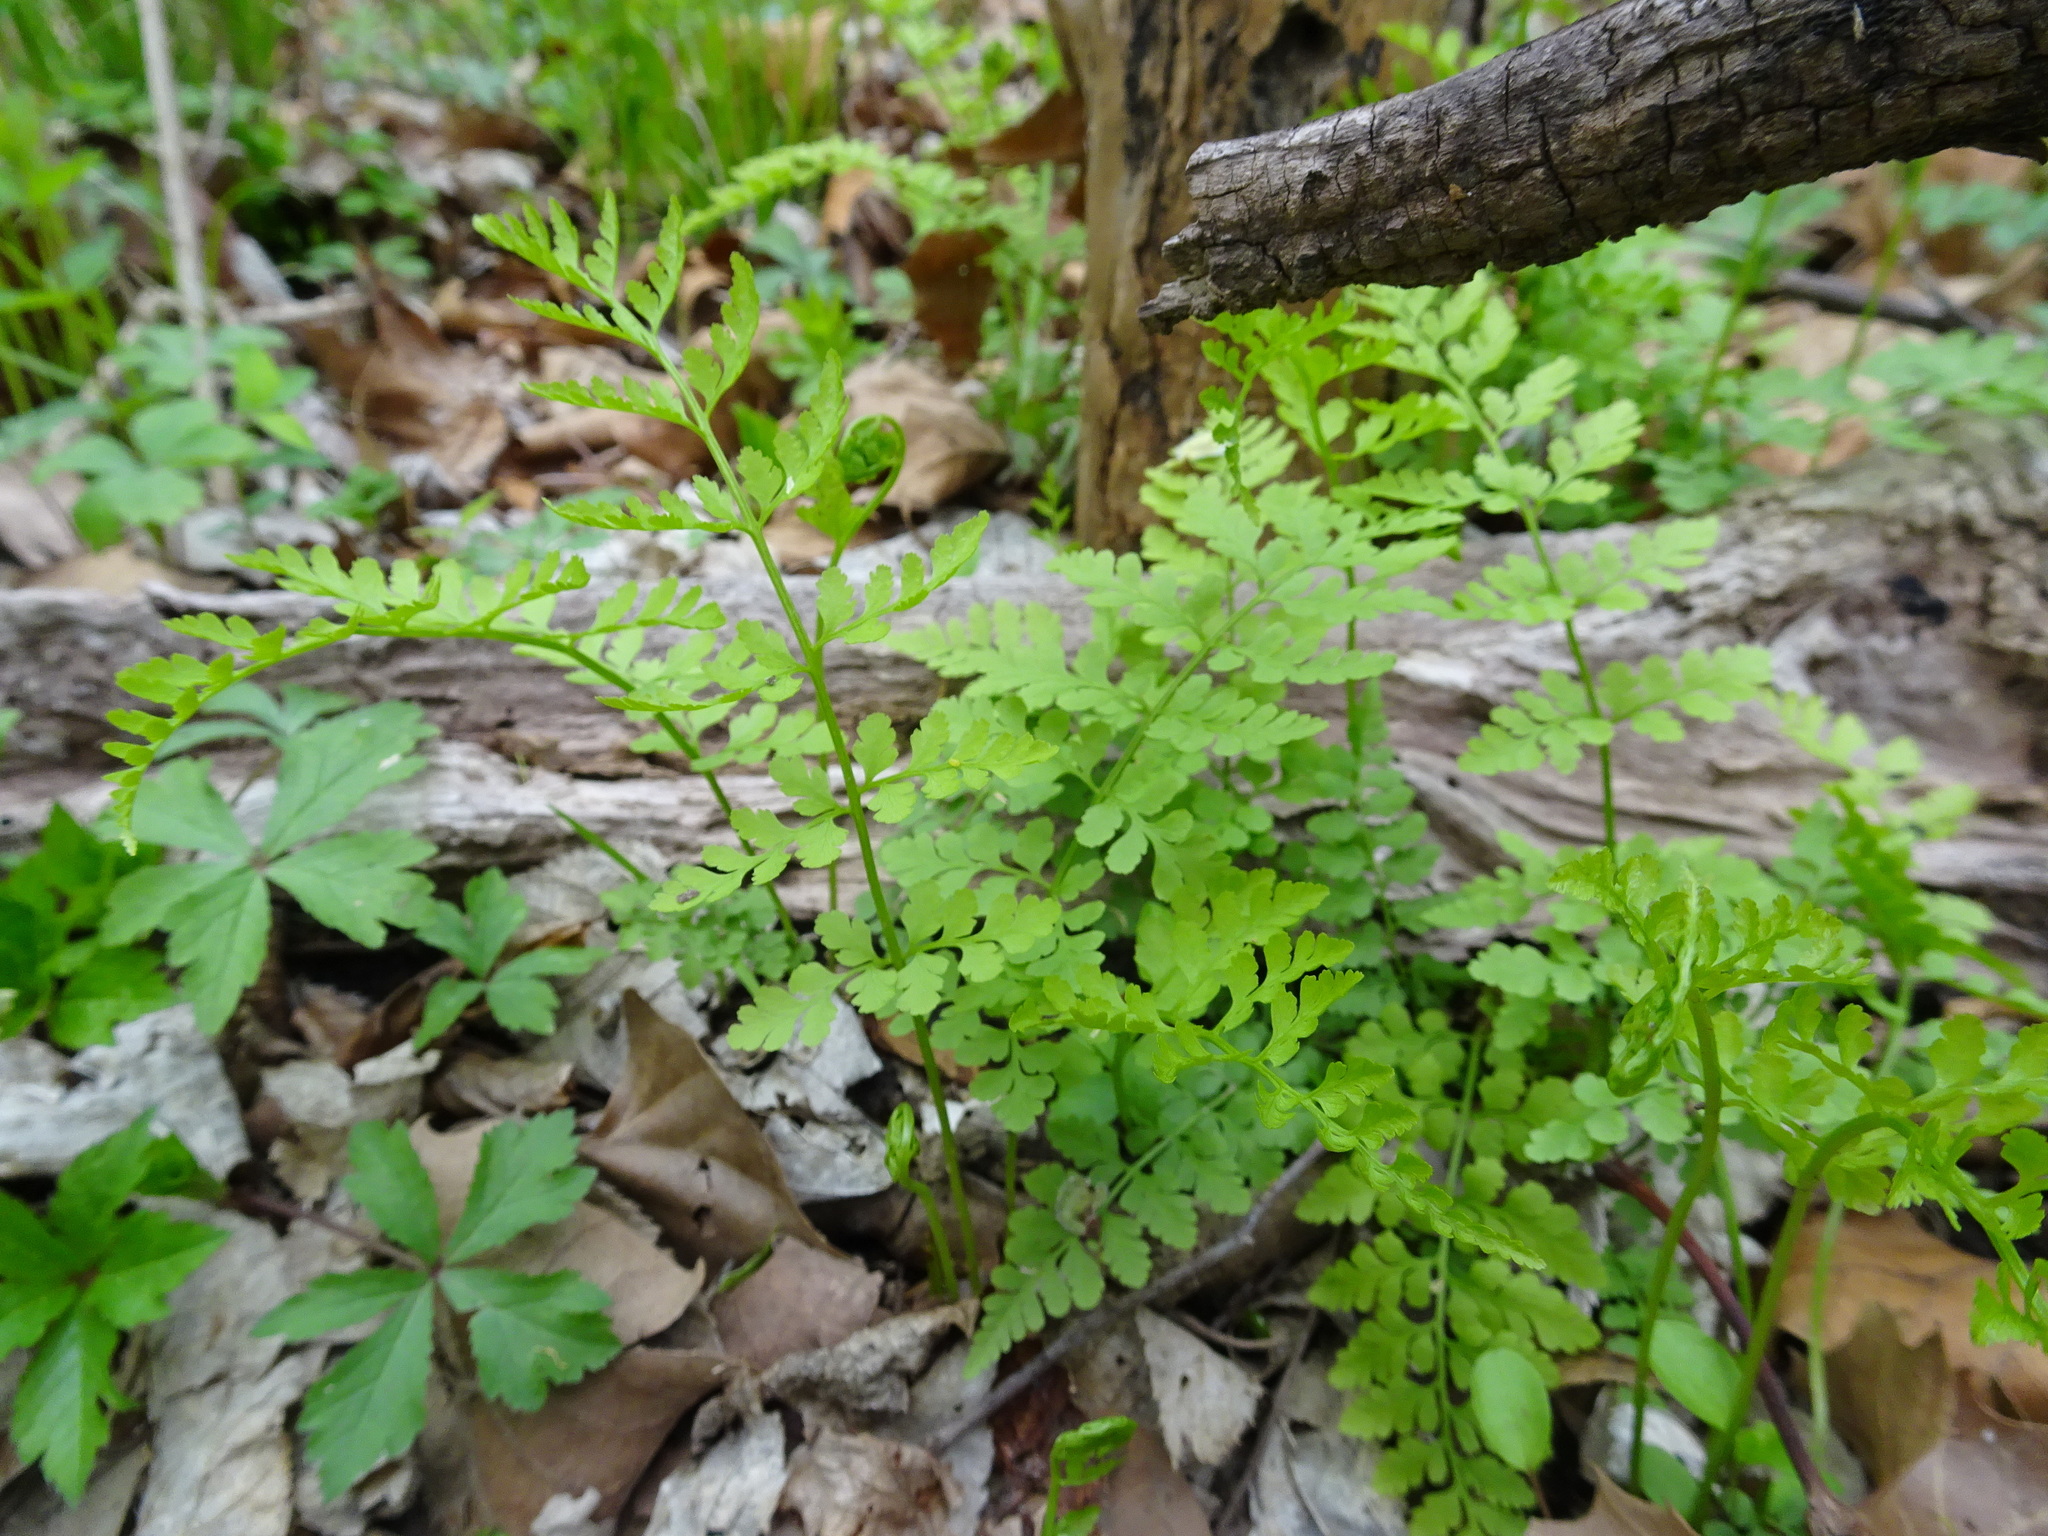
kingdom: Plantae
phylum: Tracheophyta
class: Polypodiopsida
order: Polypodiales
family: Cystopteridaceae
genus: Cystopteris
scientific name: Cystopteris protrusa
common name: Lowland brittle fern
